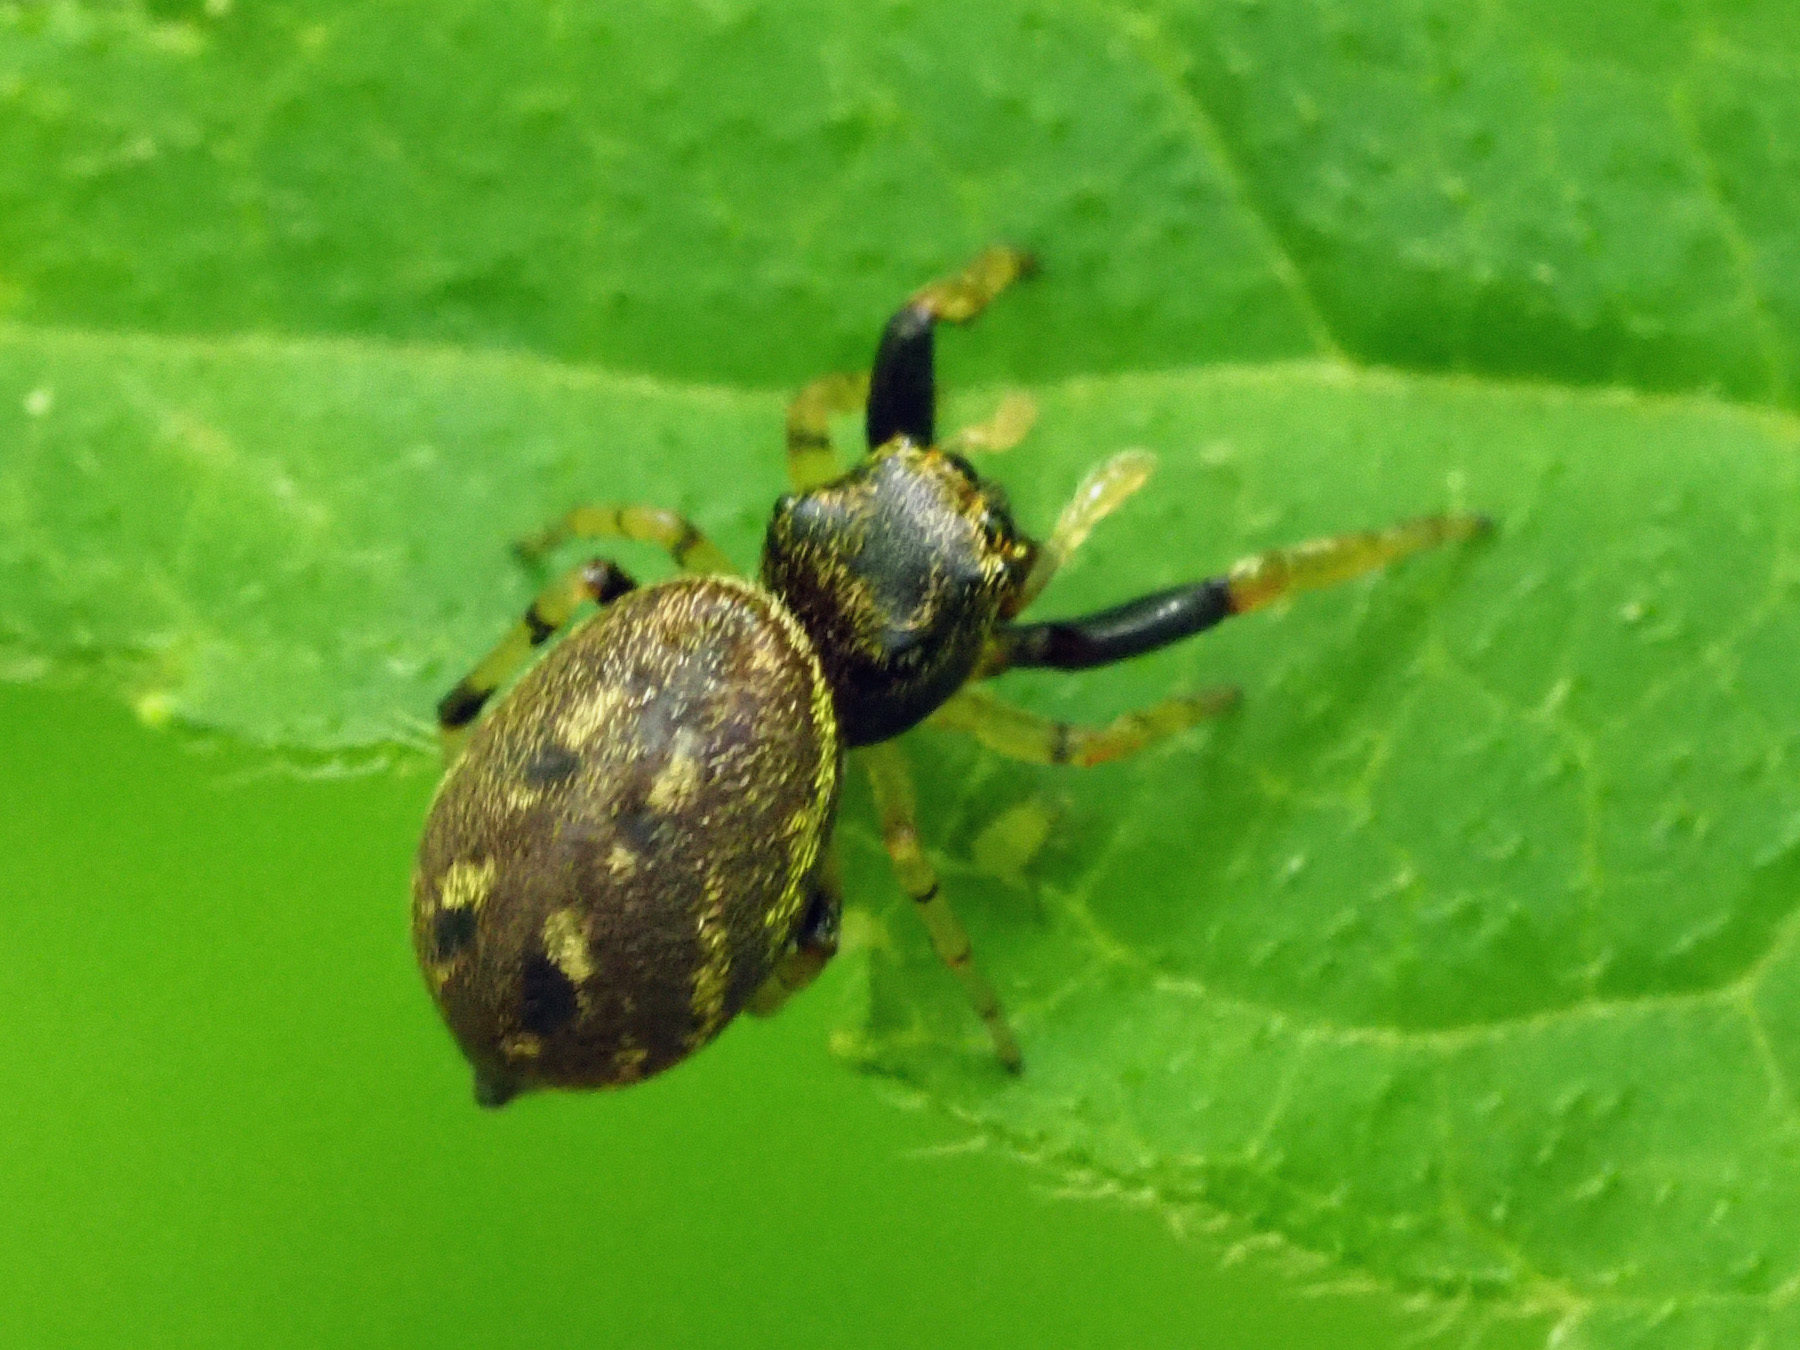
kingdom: Animalia
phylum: Arthropoda
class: Arachnida
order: Araneae
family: Salticidae
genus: Zygoballus
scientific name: Zygoballus rufipes
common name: Jumping spiders
